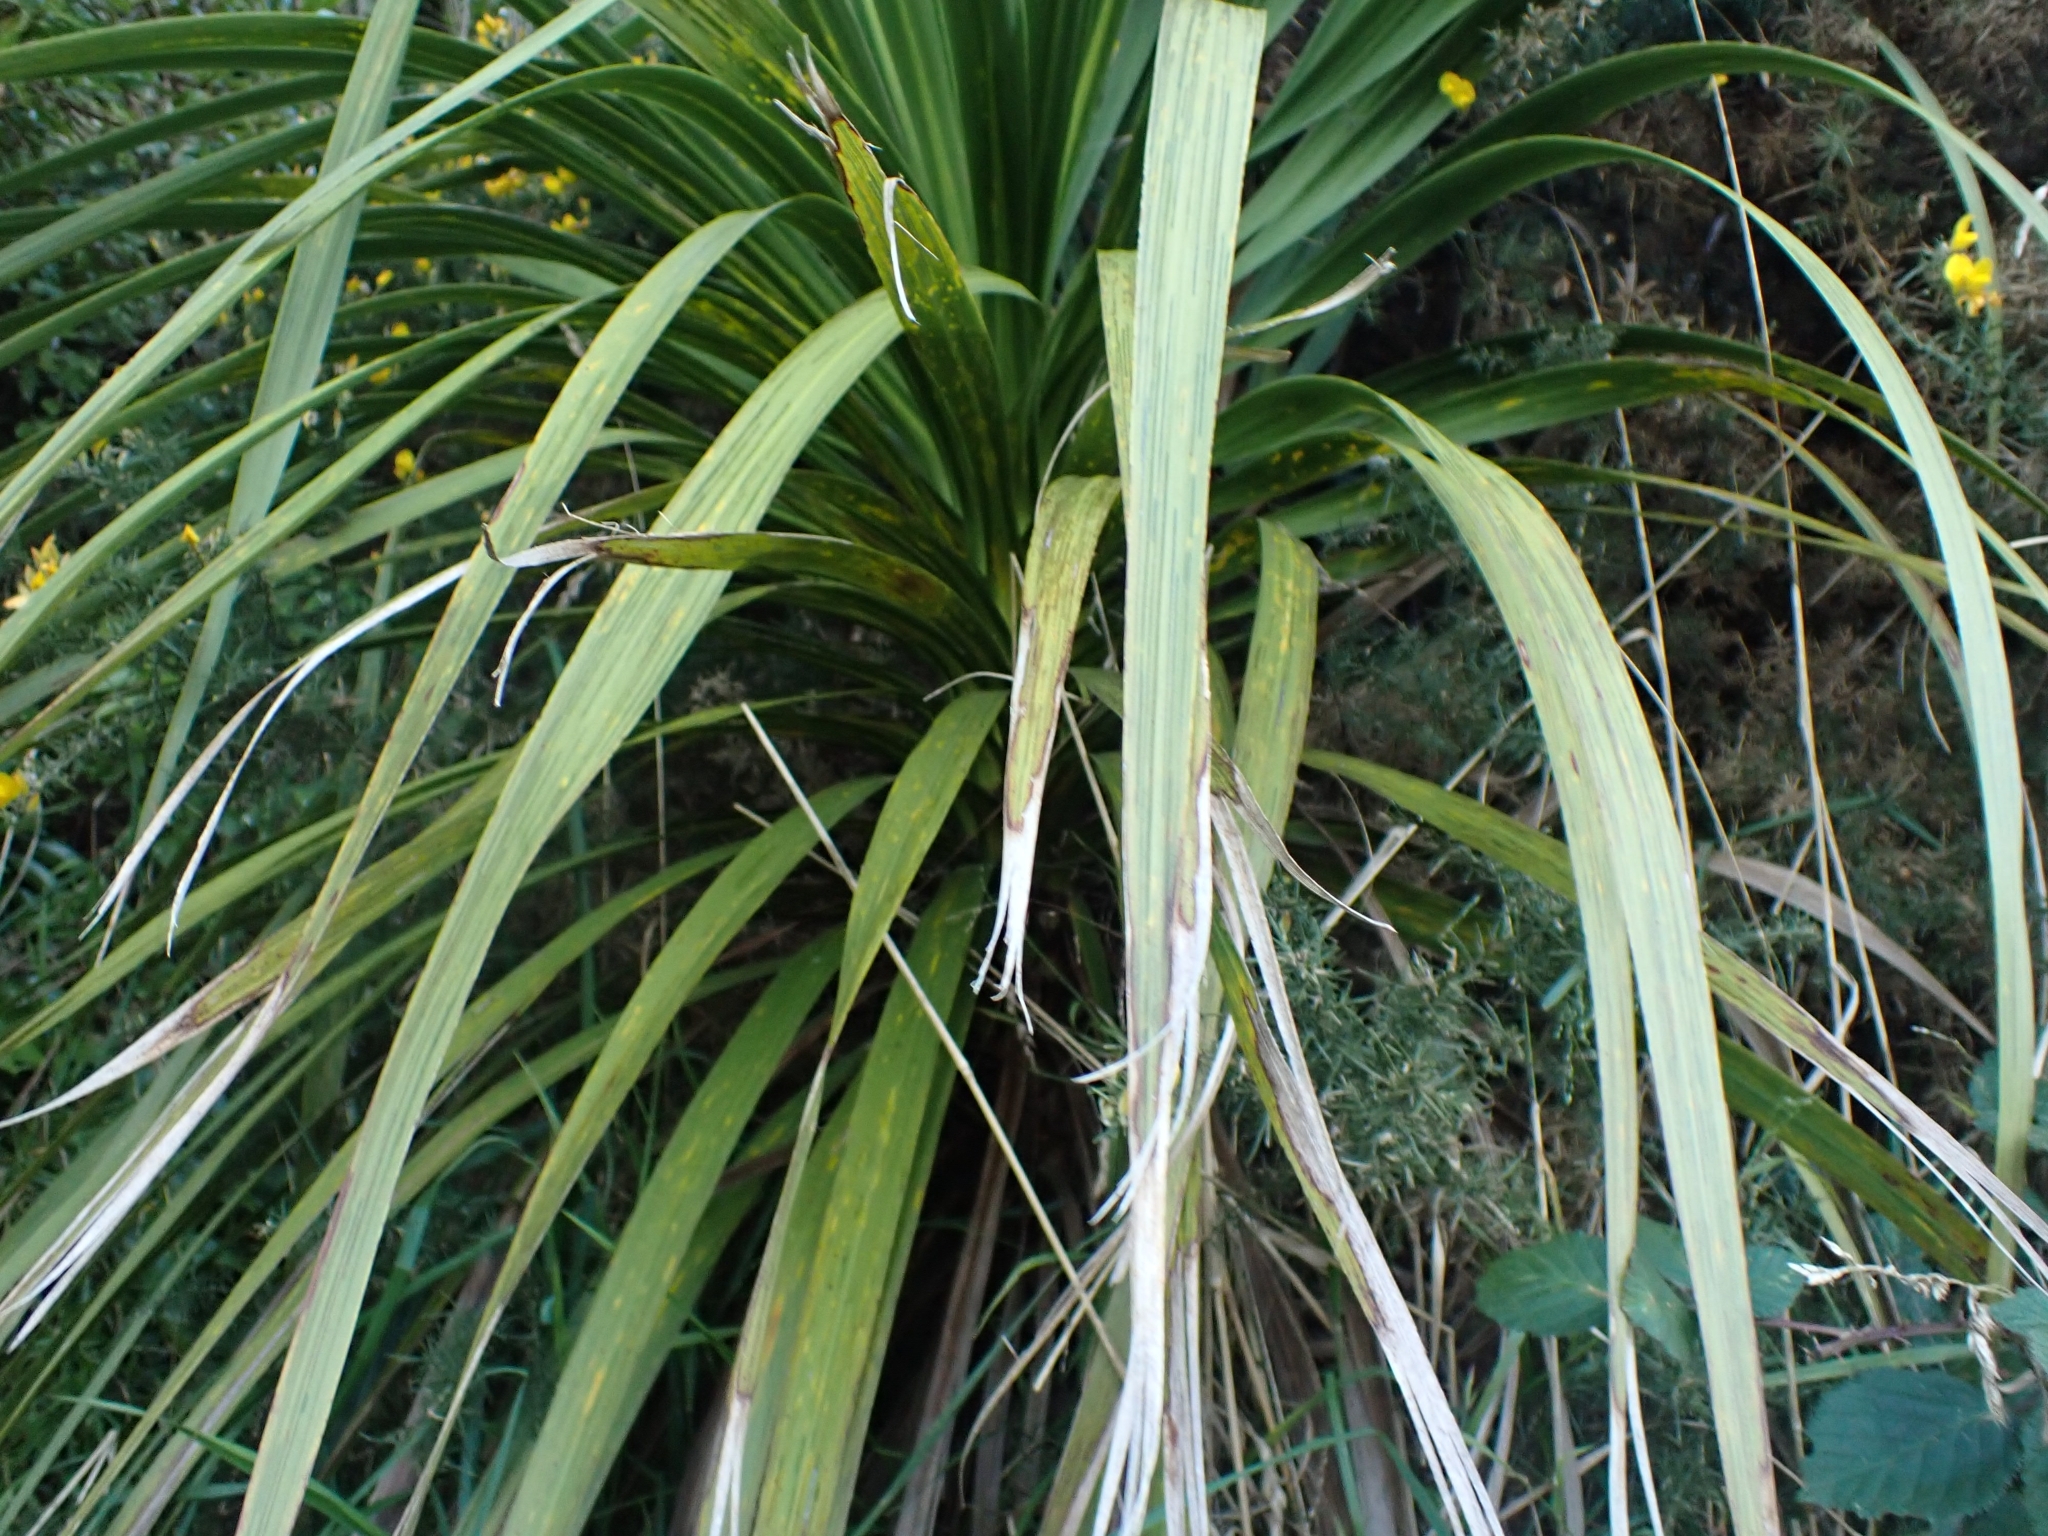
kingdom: Plantae
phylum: Tracheophyta
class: Liliopsida
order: Asparagales
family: Asparagaceae
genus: Cordyline
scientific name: Cordyline australis
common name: Cabbage-palm
